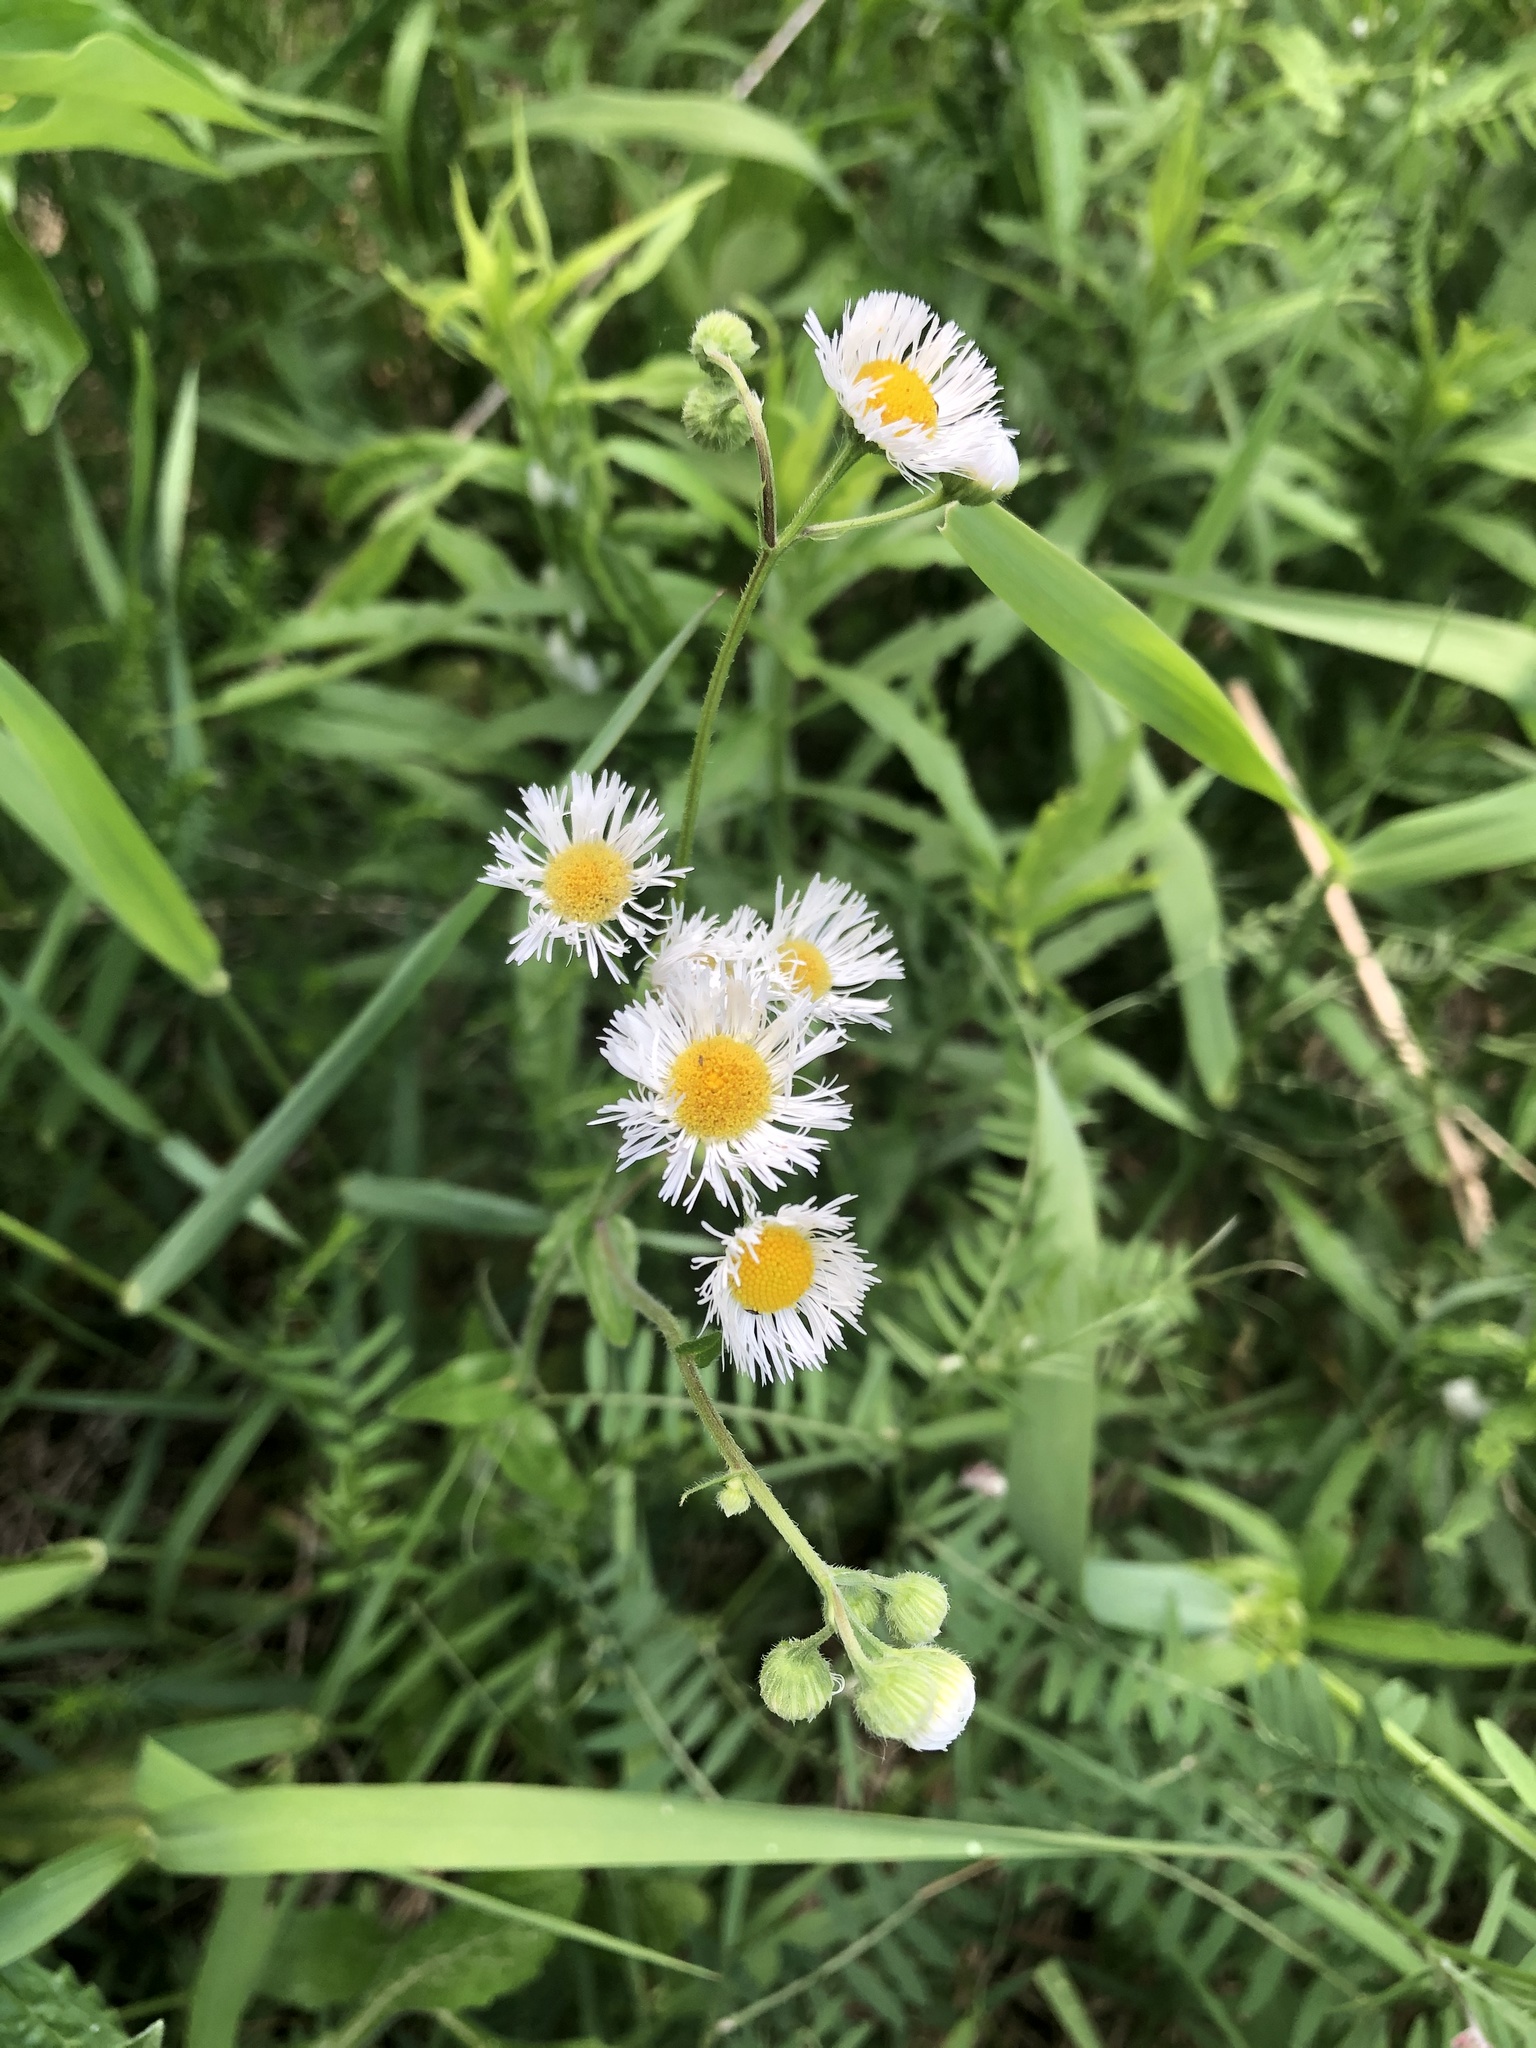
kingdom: Plantae
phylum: Tracheophyta
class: Magnoliopsida
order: Asterales
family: Asteraceae
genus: Erigeron
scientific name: Erigeron philadelphicus
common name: Robin's-plantain
